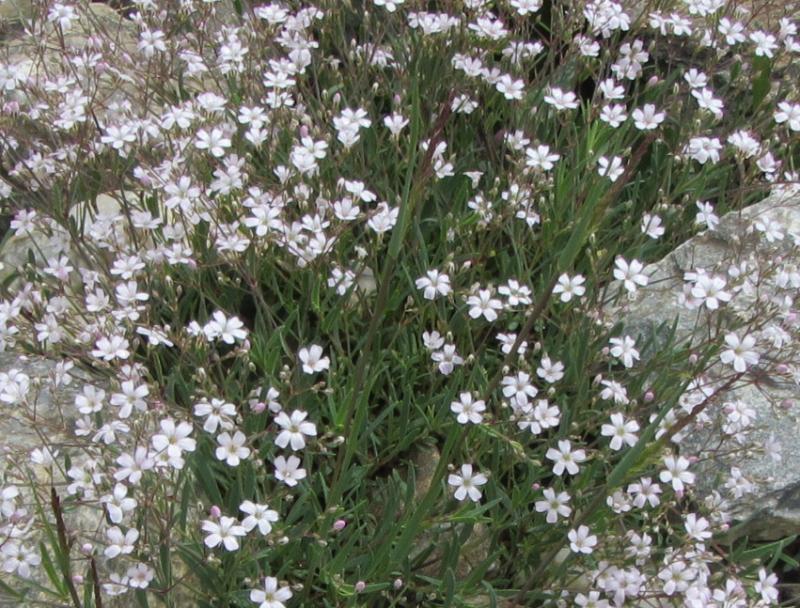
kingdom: Plantae
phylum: Tracheophyta
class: Magnoliopsida
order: Caryophyllales
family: Caryophyllaceae
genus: Gypsophila
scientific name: Gypsophila repens
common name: Creeping baby's-breath
